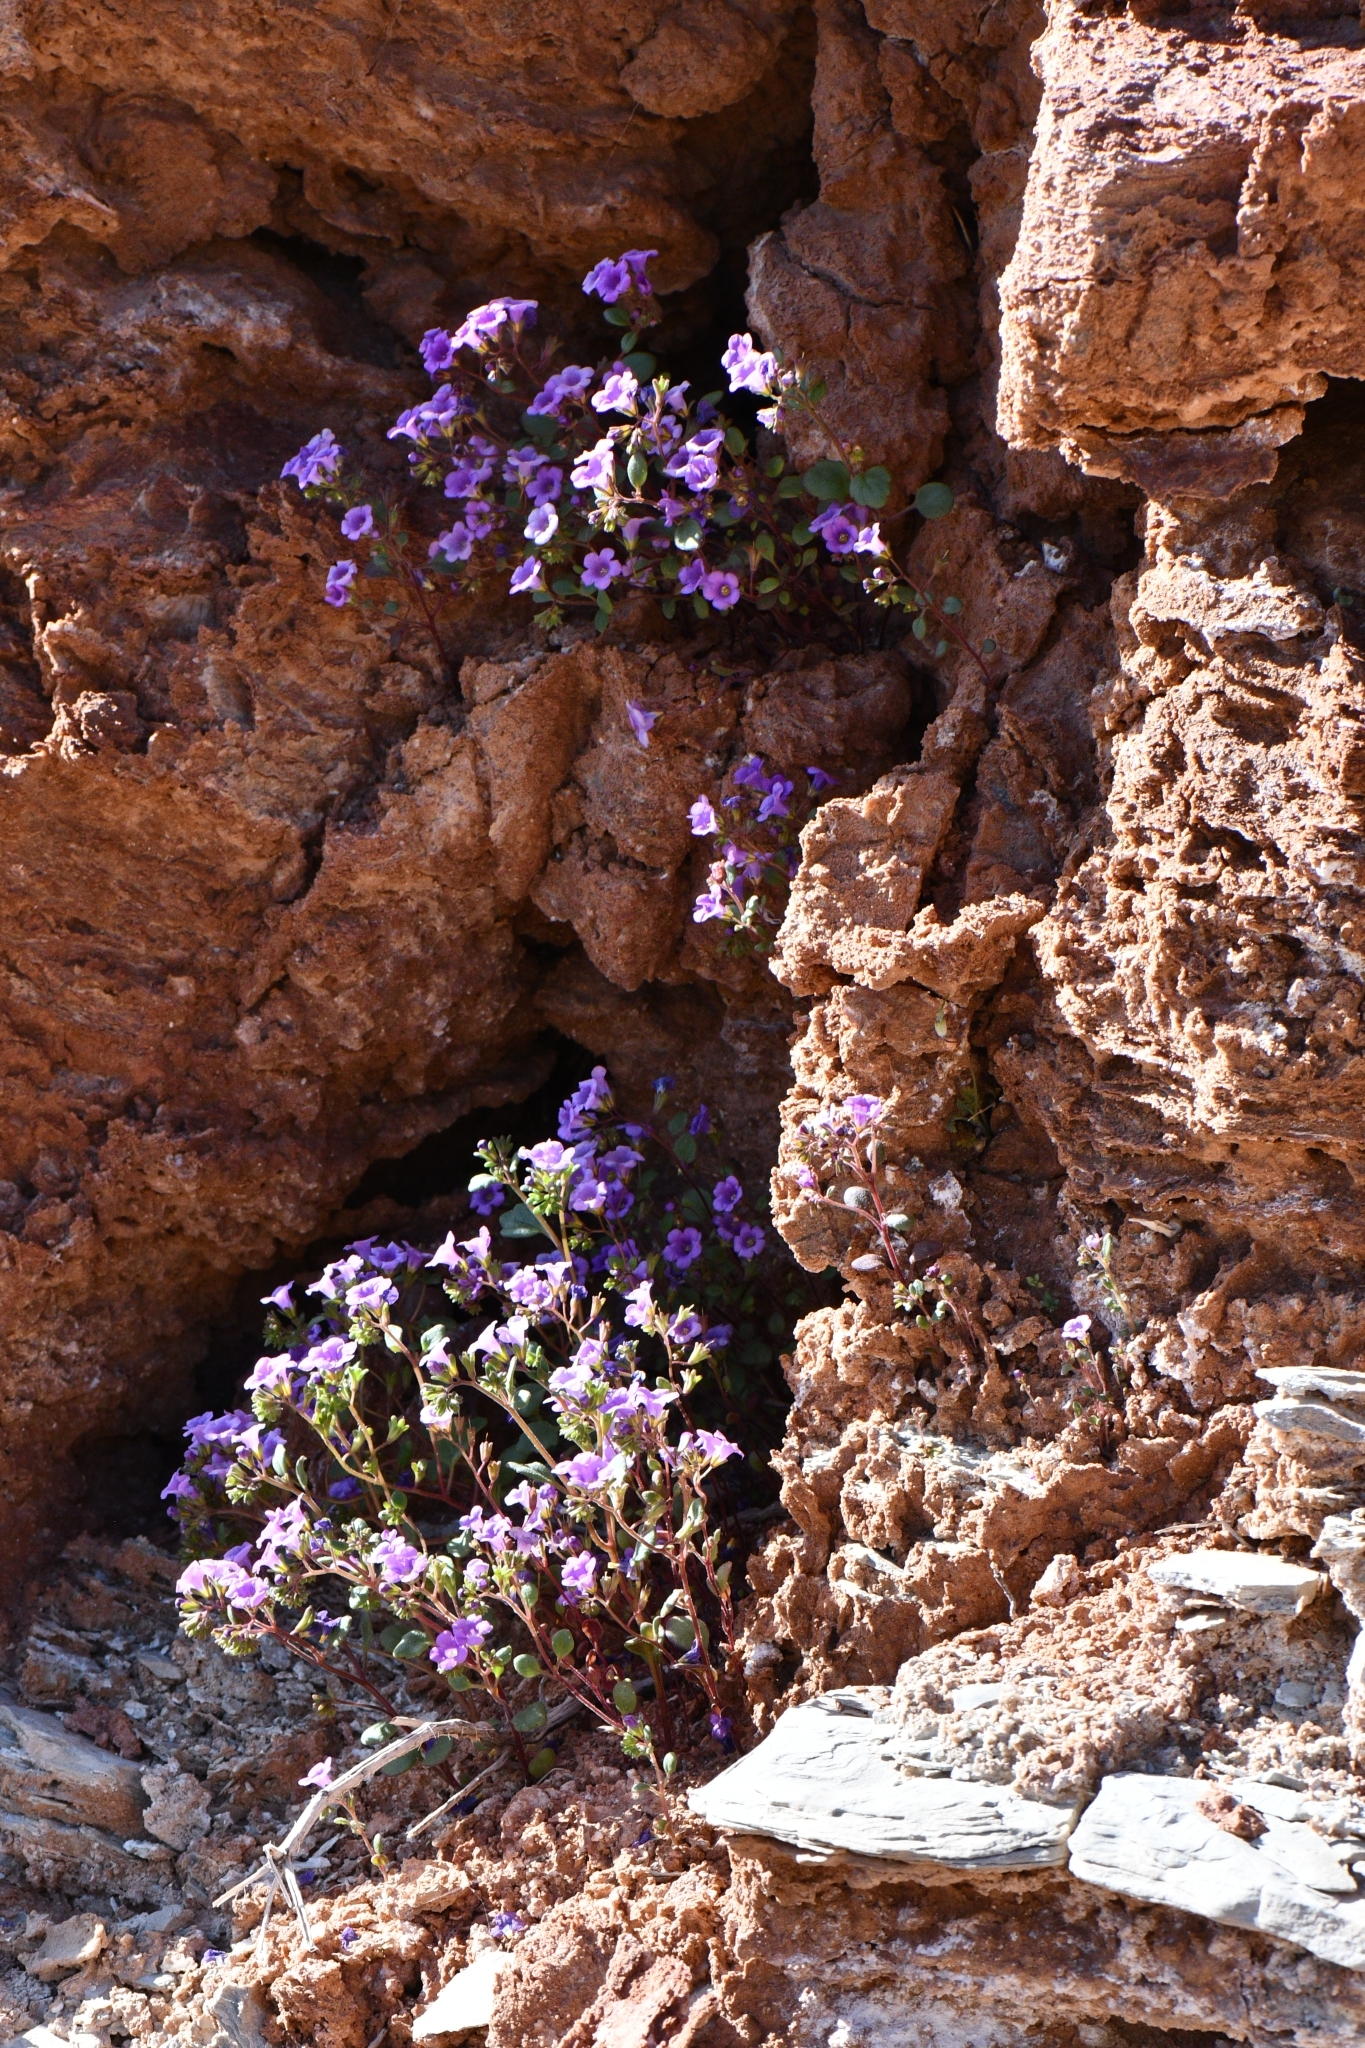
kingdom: Plantae
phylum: Tracheophyta
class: Magnoliopsida
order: Boraginales
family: Hydrophyllaceae
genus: Phacelia
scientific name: Phacelia pulchella
